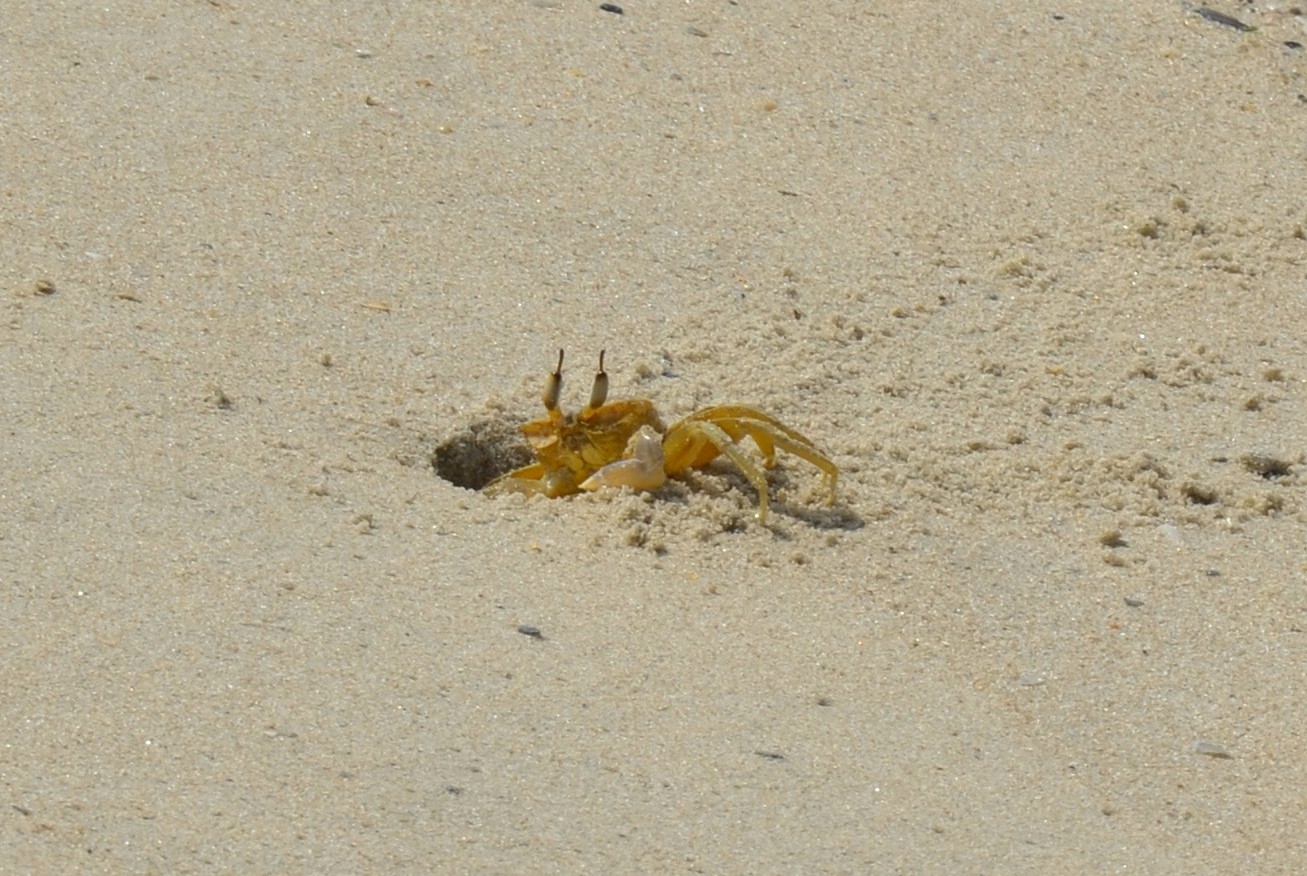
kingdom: Animalia
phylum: Arthropoda
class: Malacostraca
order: Decapoda
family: Ocypodidae
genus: Ocypode
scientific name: Ocypode ceratophthalmus
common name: Indo-pacific ghost crab
